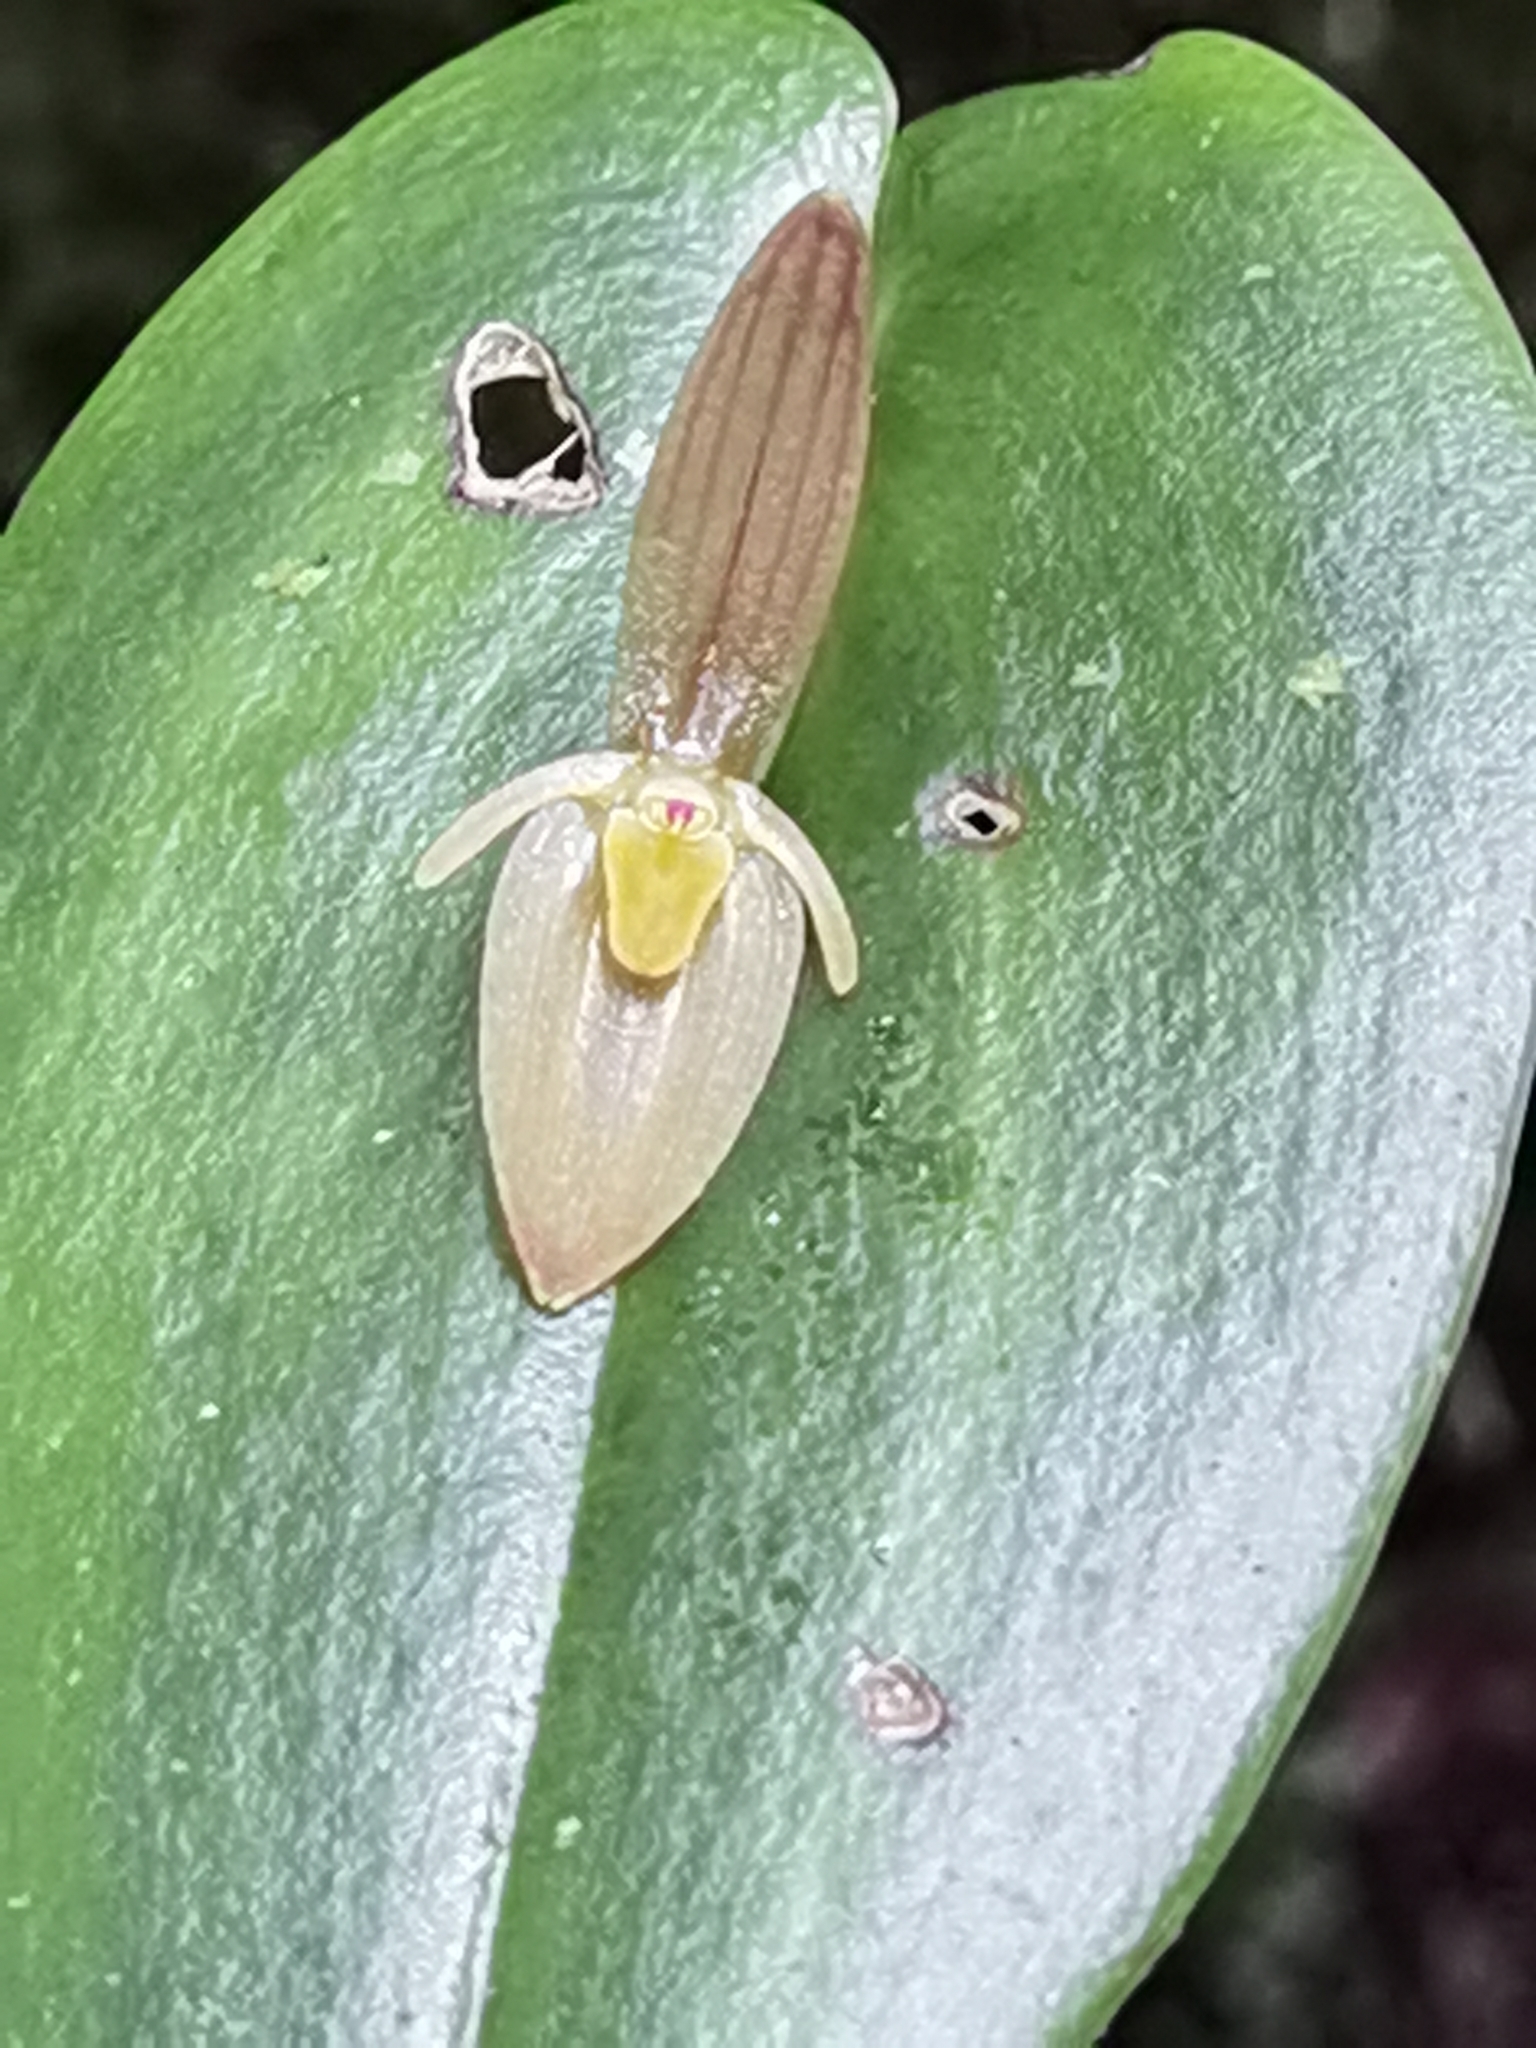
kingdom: Plantae
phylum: Tracheophyta
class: Liliopsida
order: Asparagales
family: Orchidaceae
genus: Pleurothallis
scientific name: Pleurothallis homalantha
